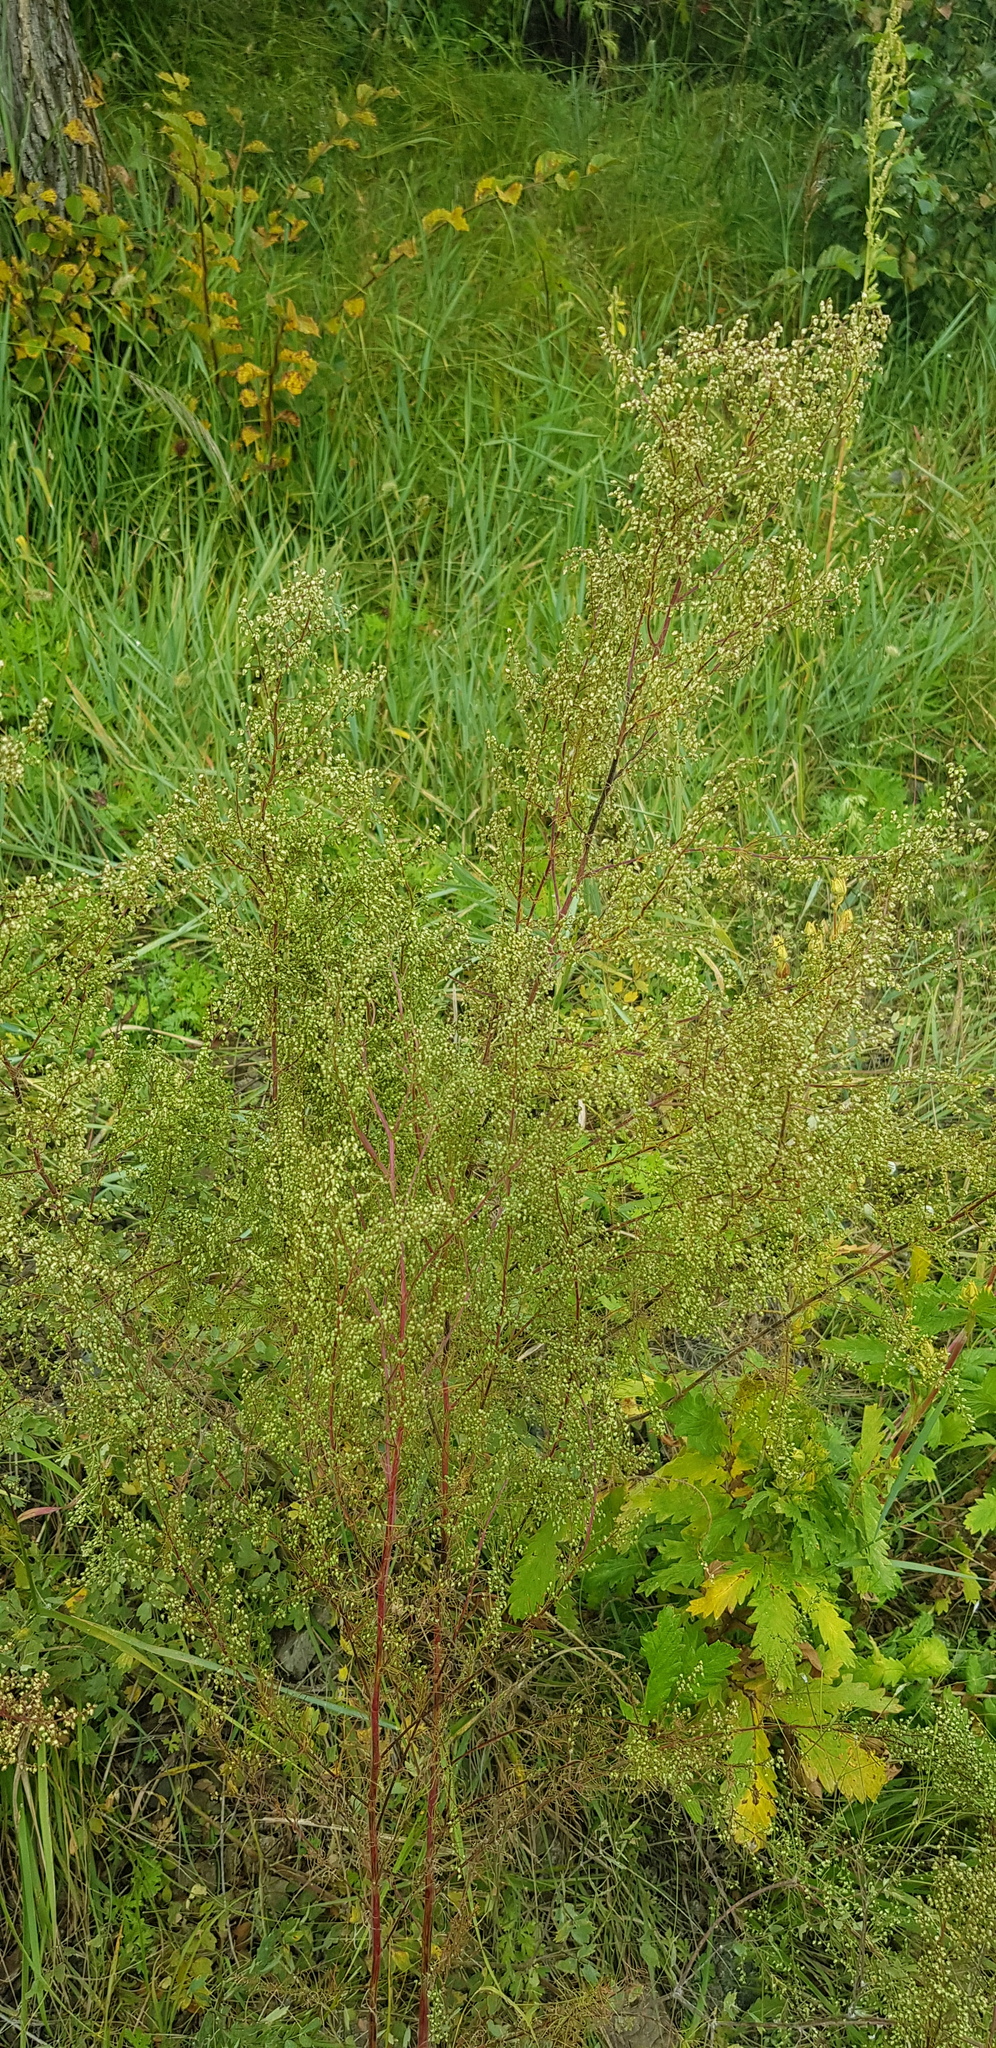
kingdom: Plantae
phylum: Tracheophyta
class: Magnoliopsida
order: Asterales
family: Asteraceae
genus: Artemisia
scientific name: Artemisia scoparia
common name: Redstem wormwood
